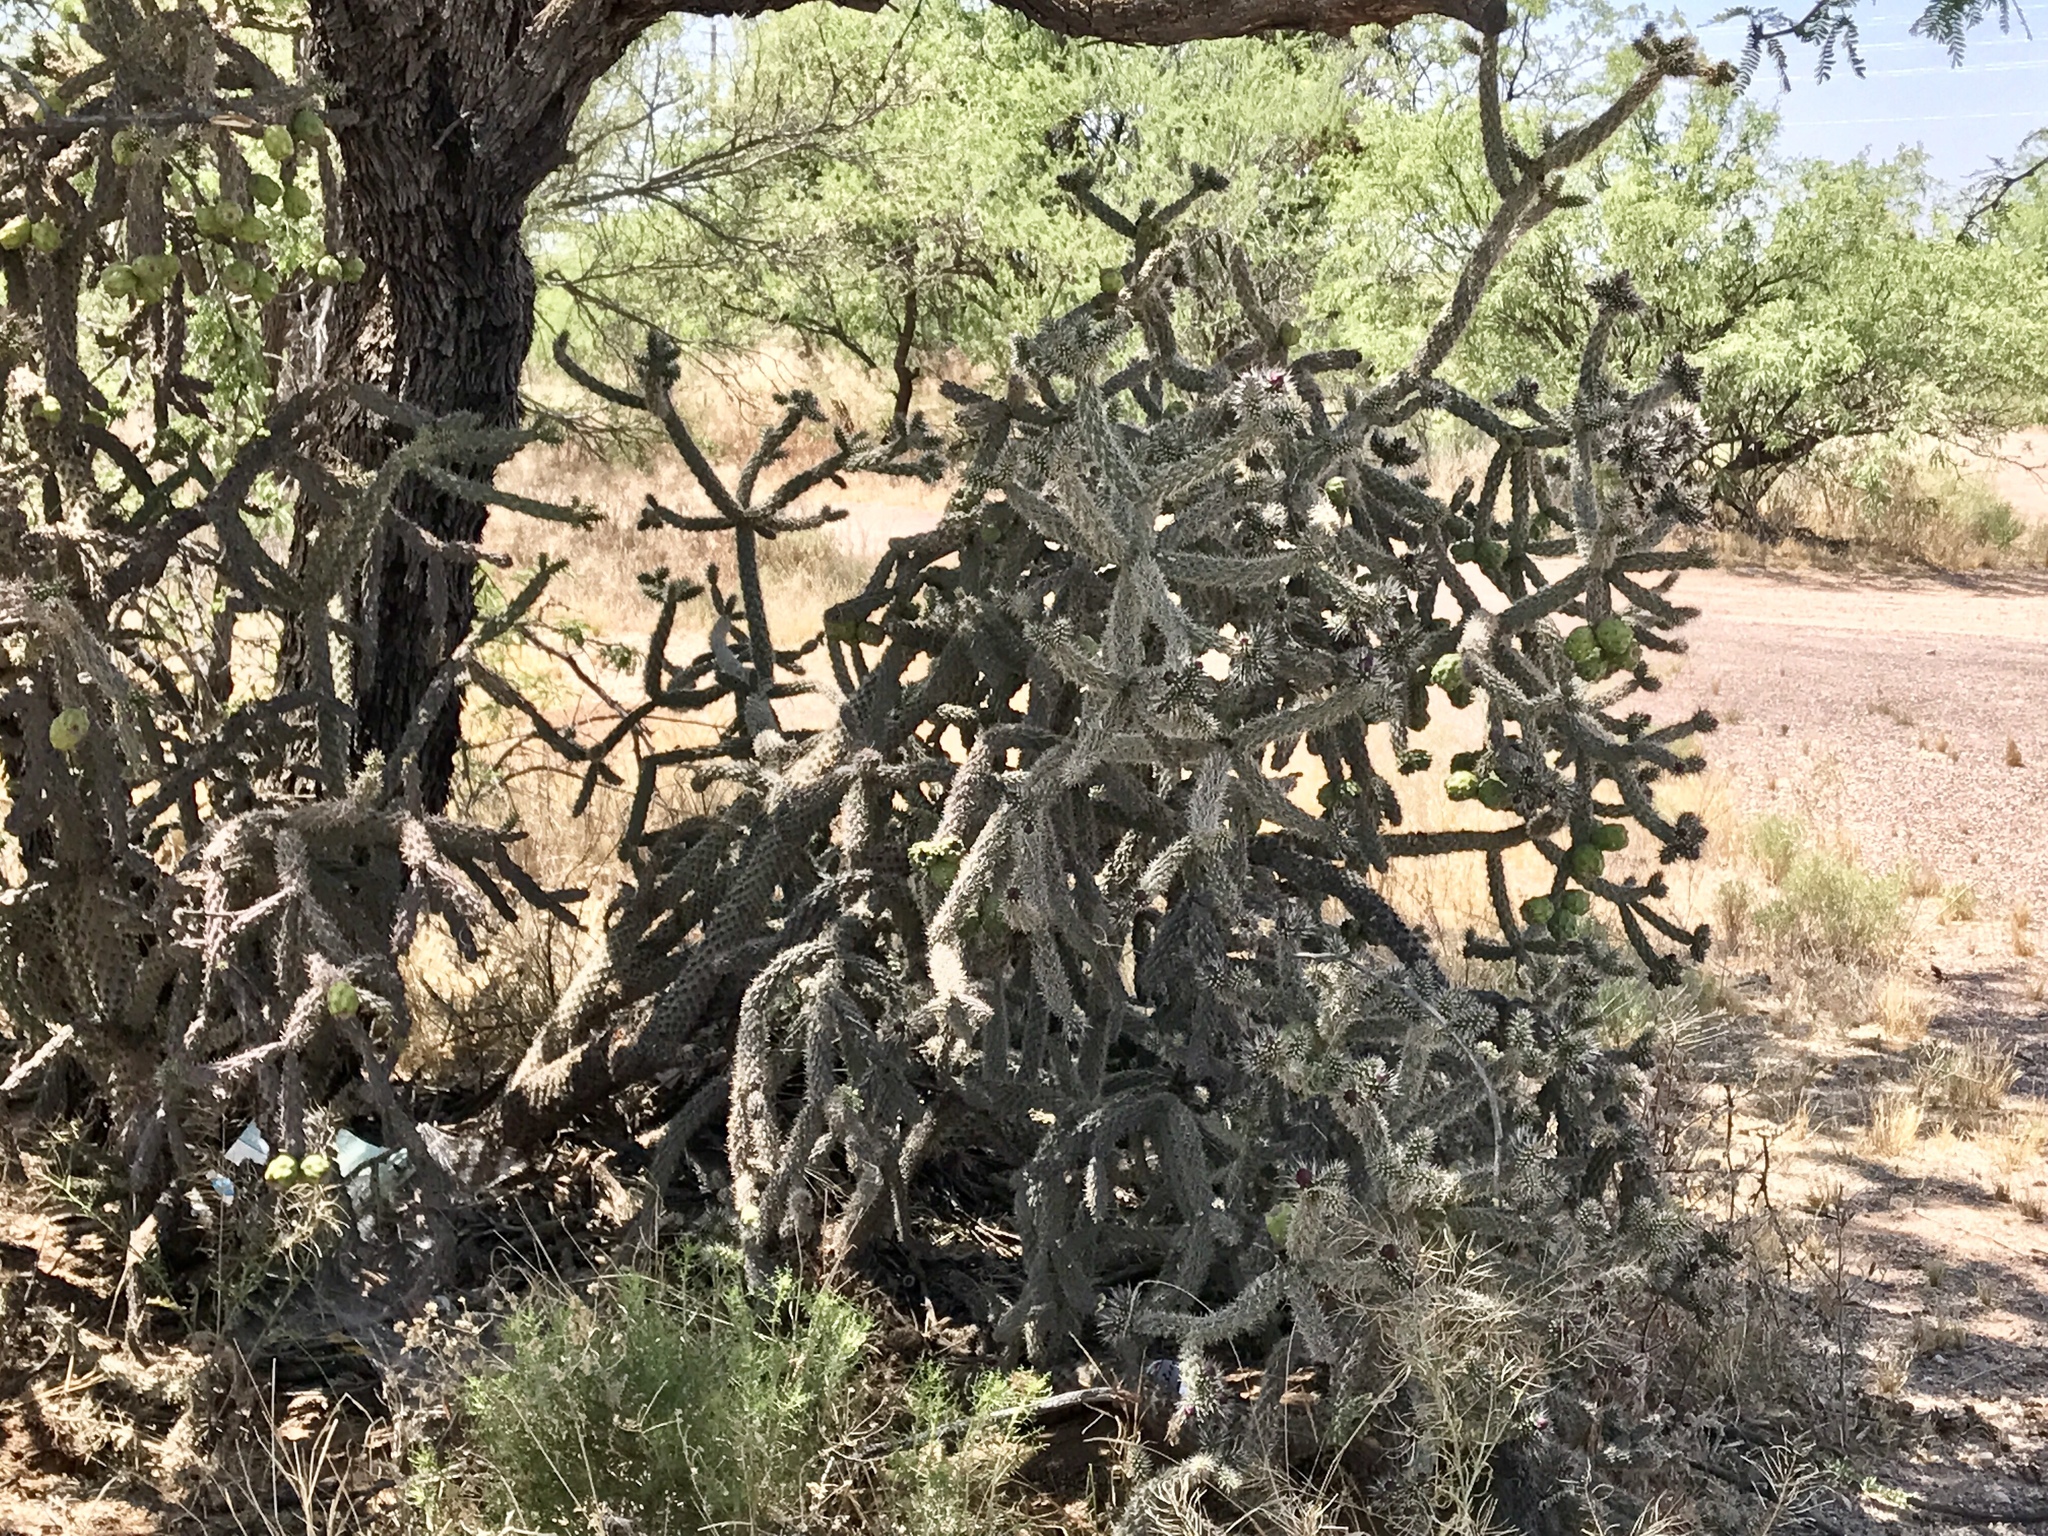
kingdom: Plantae
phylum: Tracheophyta
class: Magnoliopsida
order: Caryophyllales
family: Cactaceae
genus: Cylindropuntia
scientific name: Cylindropuntia imbricata
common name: Candelabrum cactus
